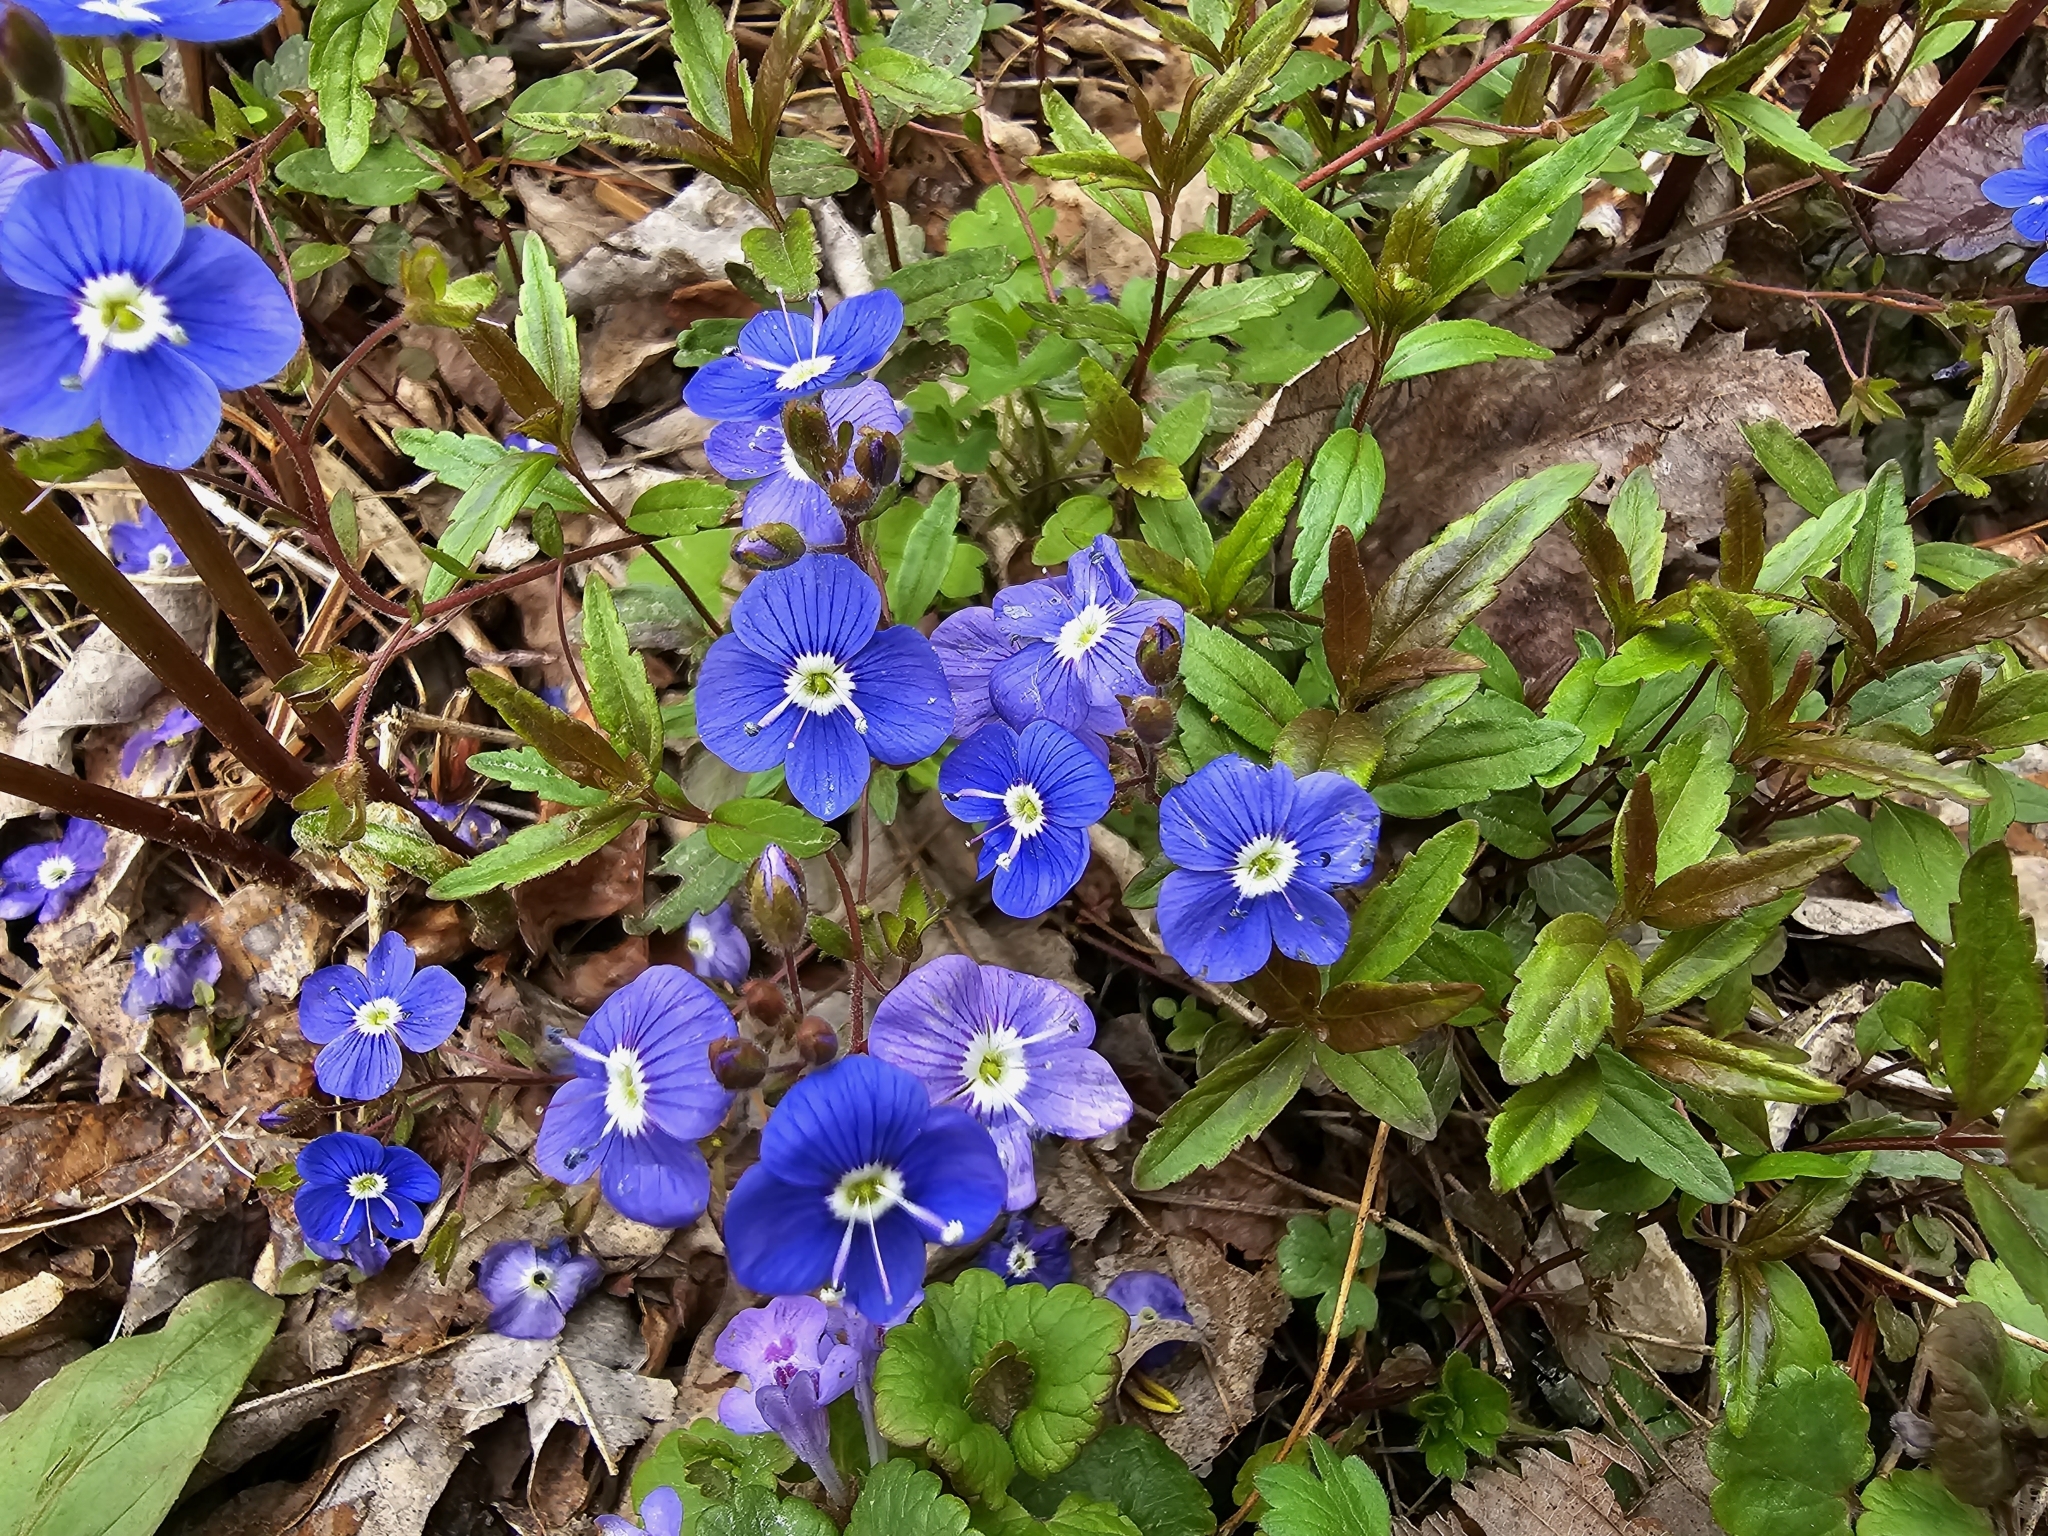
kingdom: Plantae
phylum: Tracheophyta
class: Magnoliopsida
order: Lamiales
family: Plantaginaceae
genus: Veronica
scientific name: Veronica
